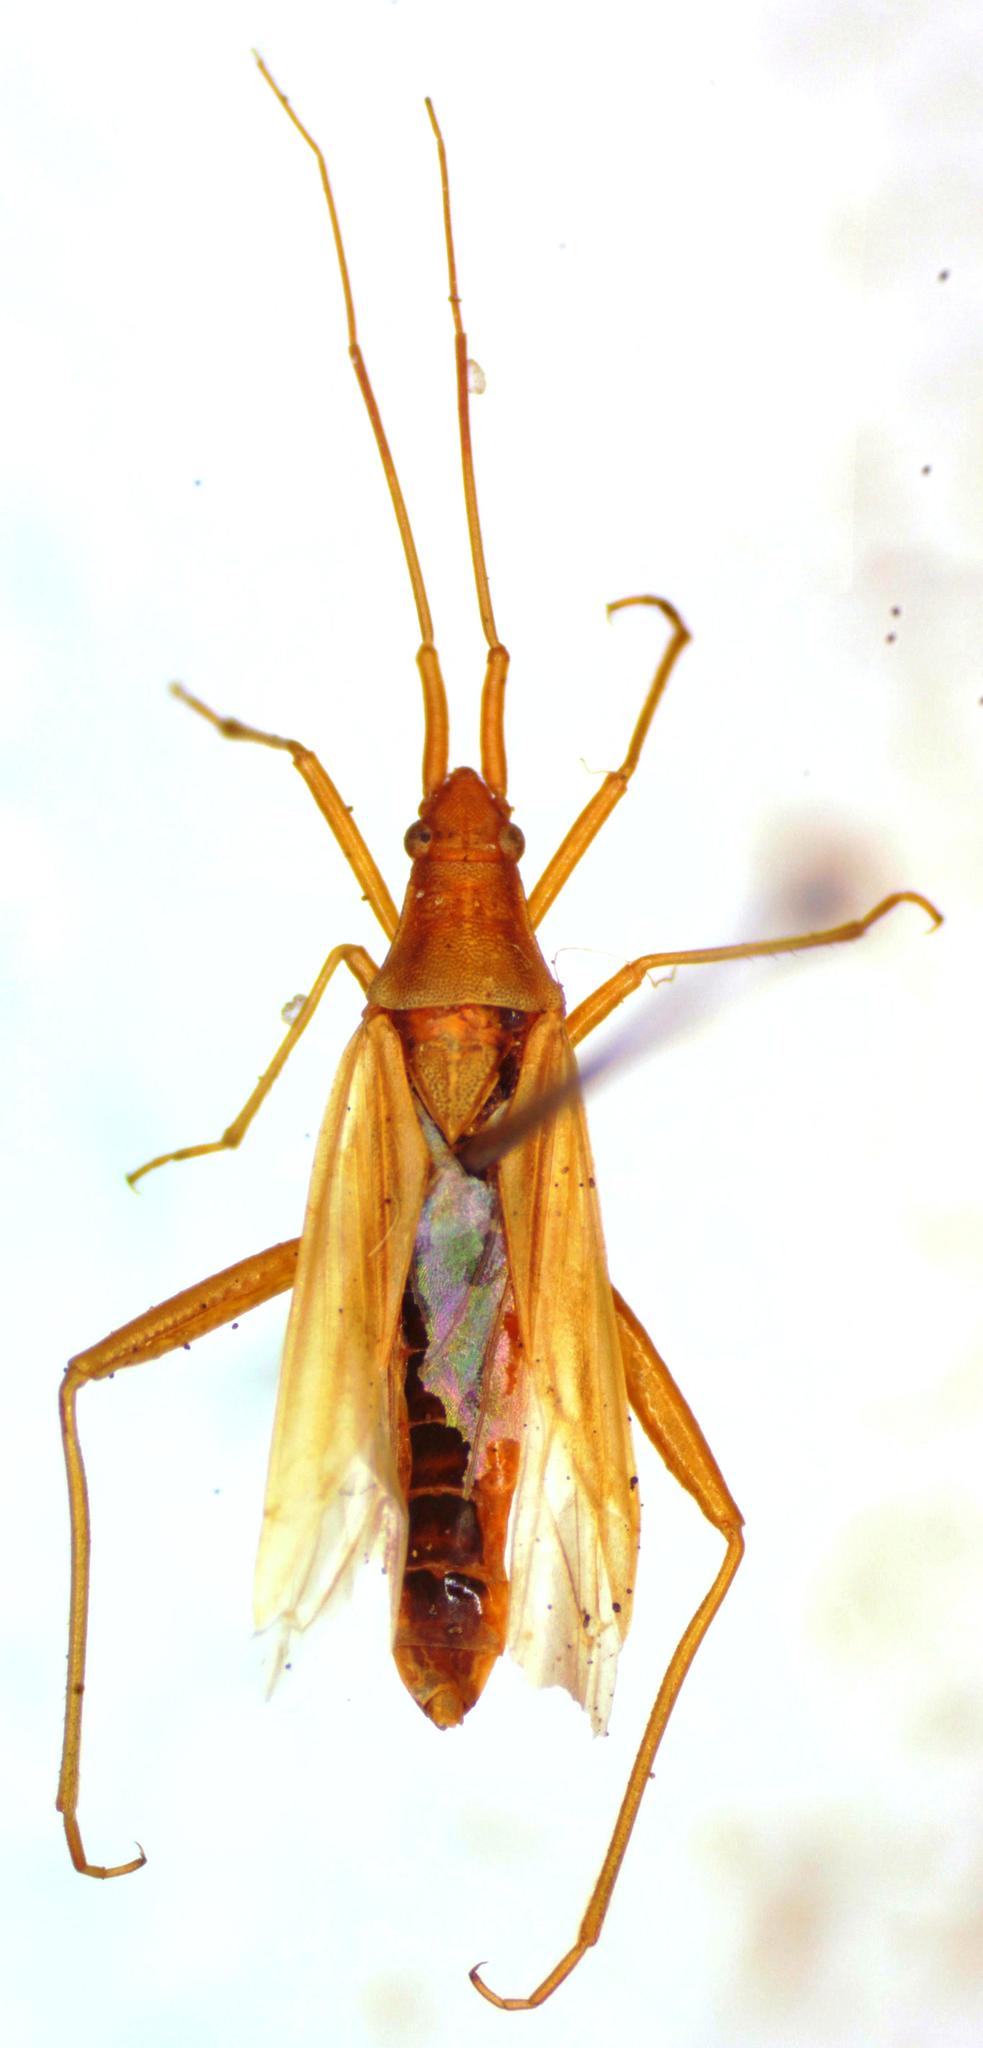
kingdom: Animalia
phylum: Arthropoda
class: Insecta
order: Hemiptera
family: Miridae
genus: Stenodema
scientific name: Stenodema laevigata
